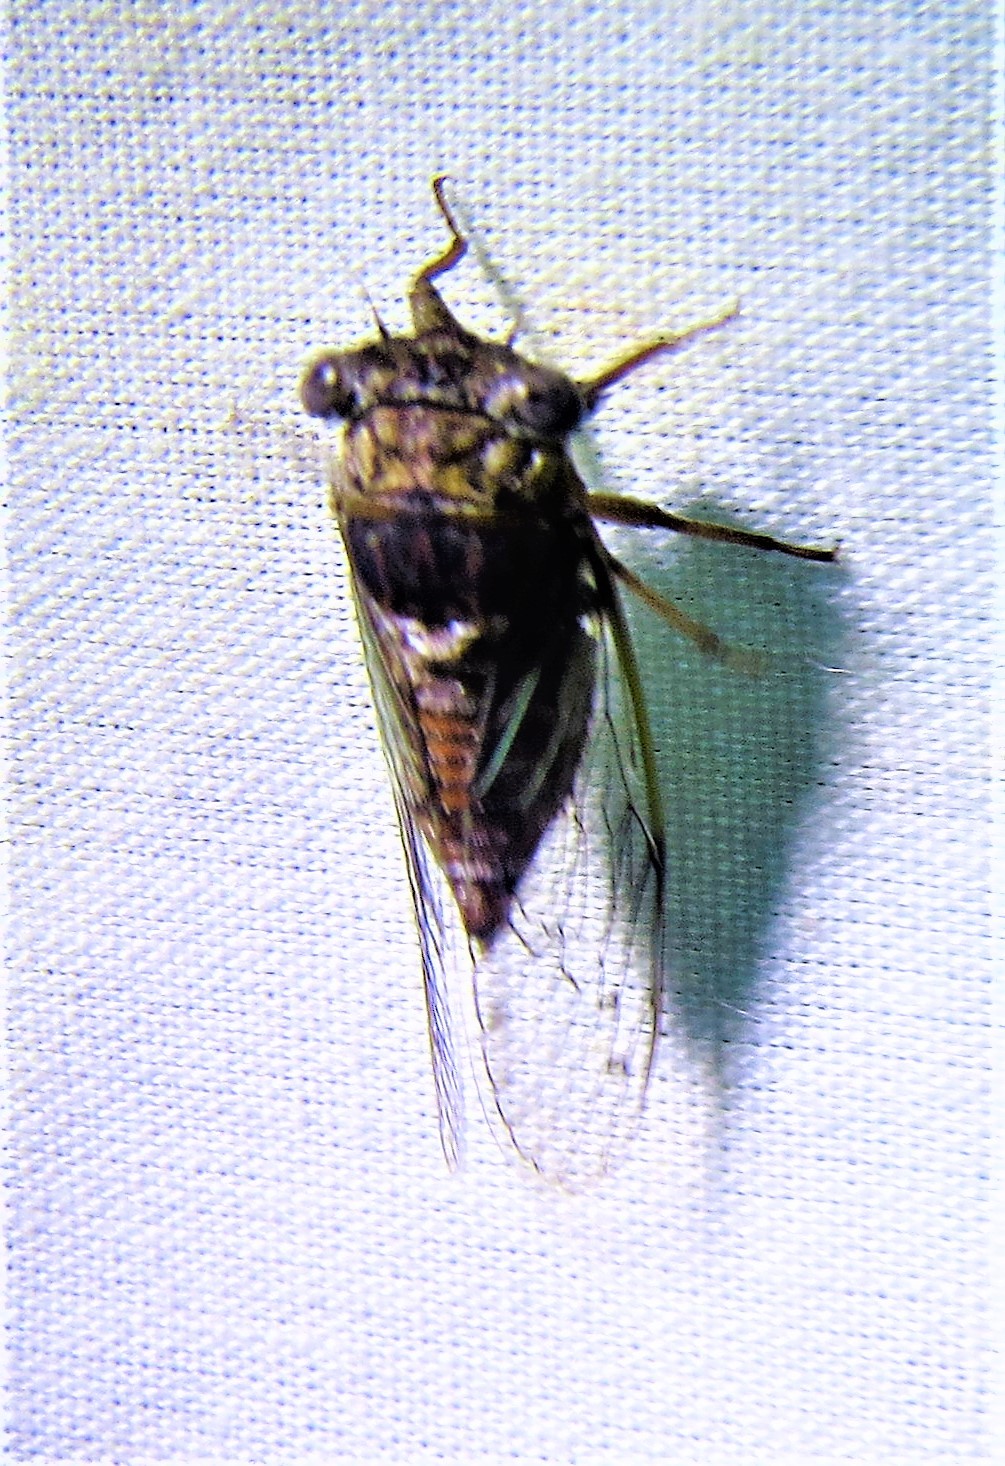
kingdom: Animalia
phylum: Arthropoda
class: Insecta
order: Hemiptera
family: Cicadidae
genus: Pacarina
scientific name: Pacarina puella
